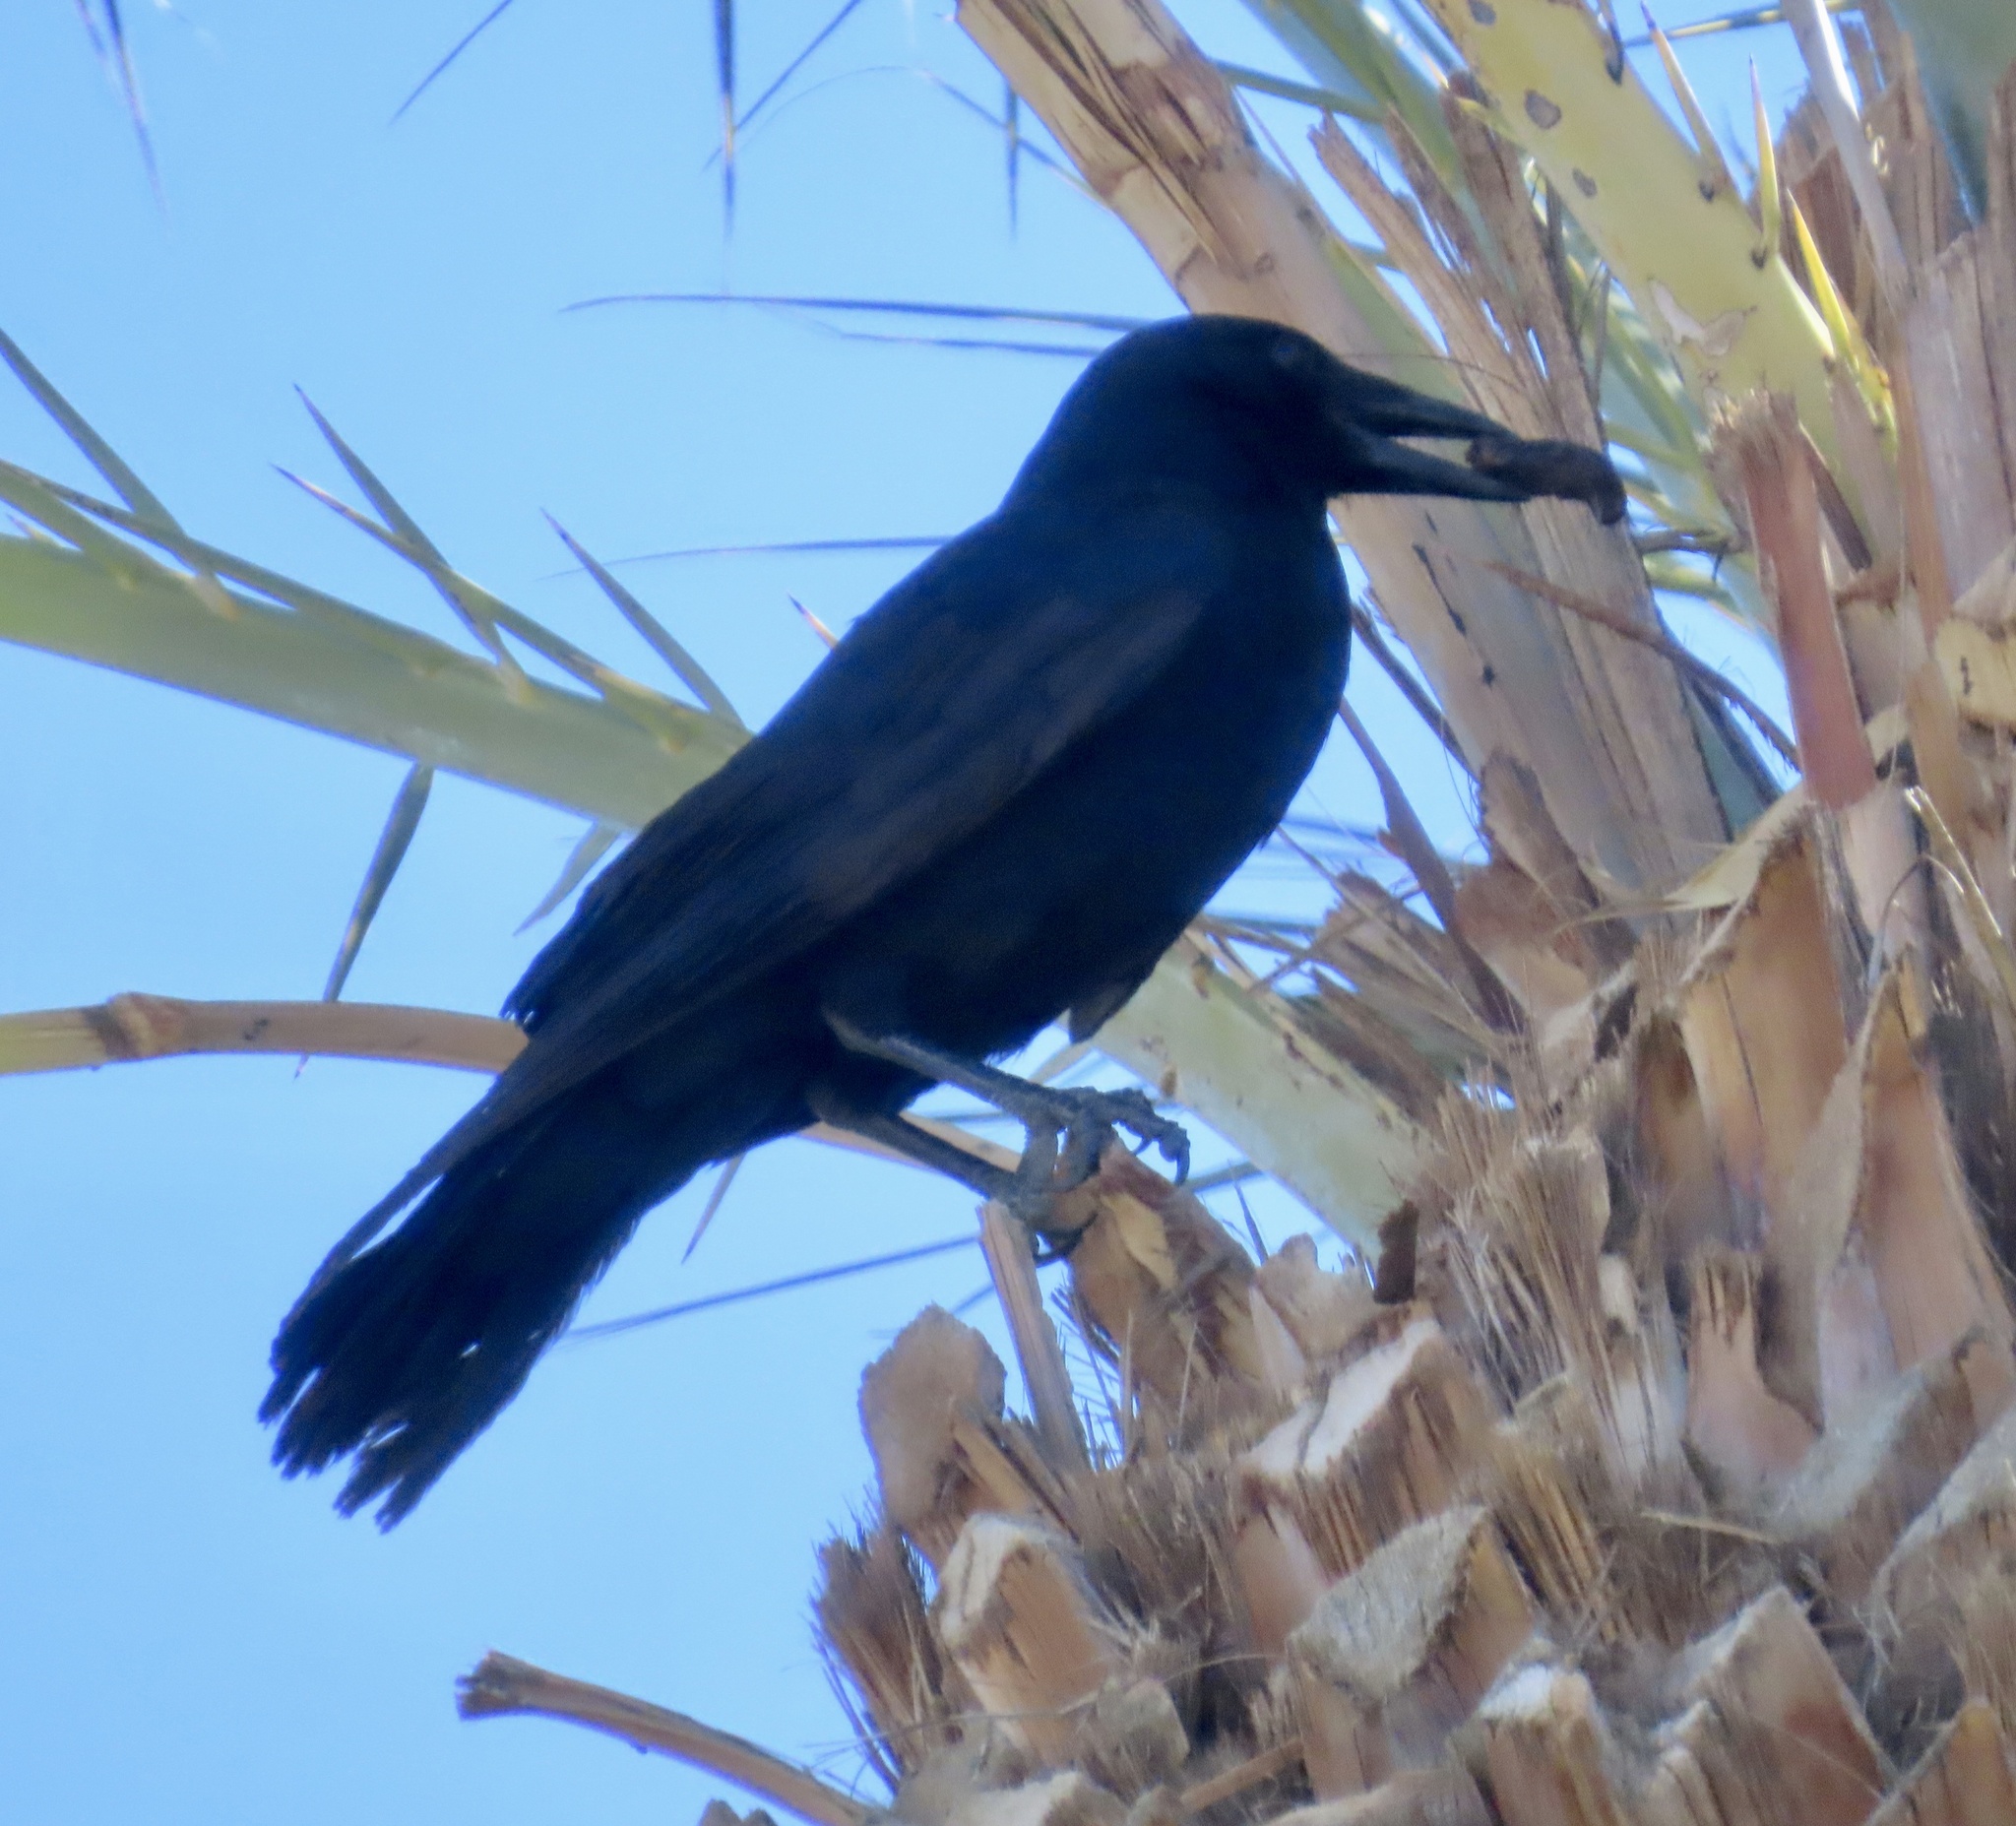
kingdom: Animalia
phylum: Chordata
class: Aves
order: Passeriformes
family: Corvidae
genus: Corvus
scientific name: Corvus brachyrhynchos
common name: American crow
